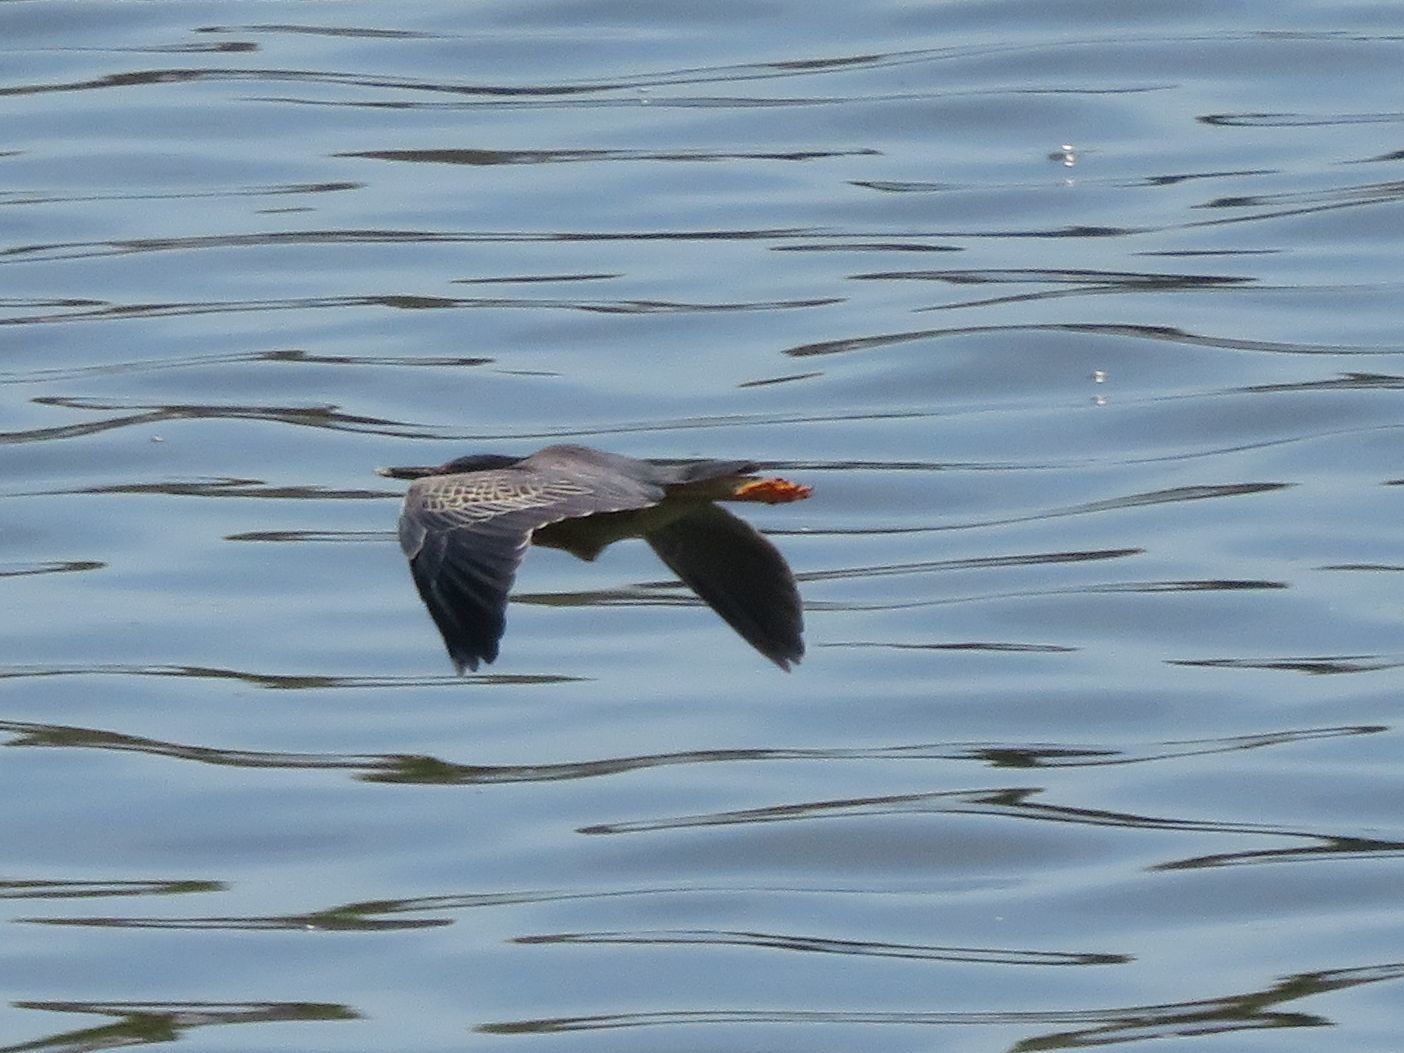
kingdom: Animalia
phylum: Chordata
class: Aves
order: Pelecaniformes
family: Ardeidae
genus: Butorides
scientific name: Butorides striata
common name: Striated heron
